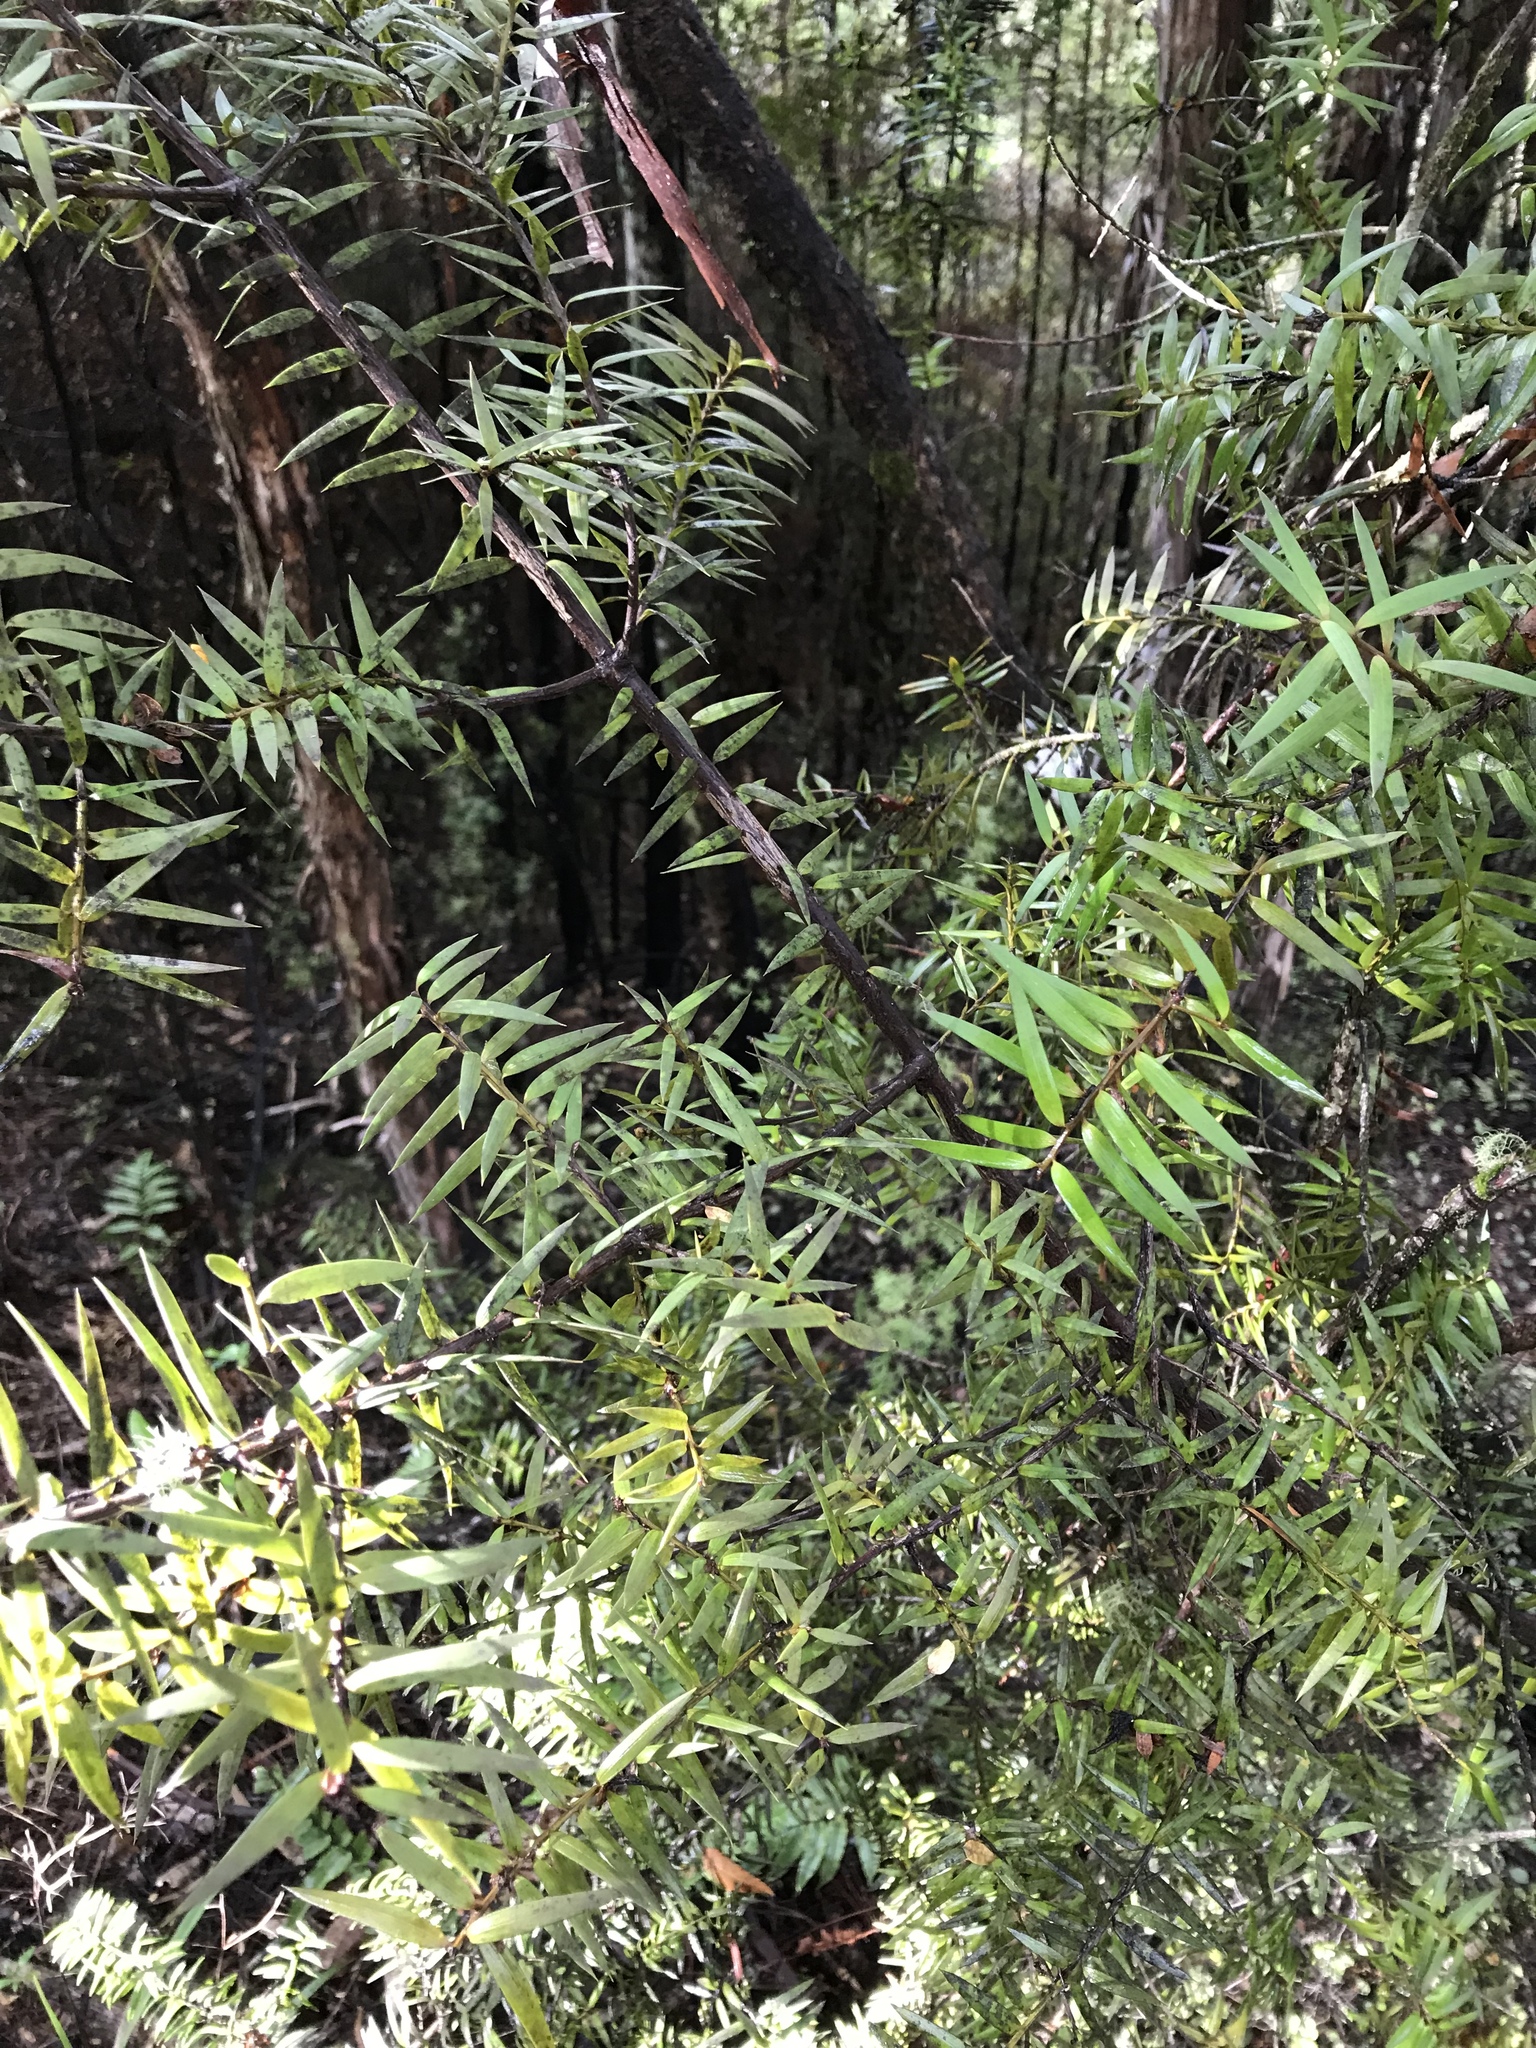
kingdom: Plantae
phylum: Tracheophyta
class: Pinopsida
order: Pinales
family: Podocarpaceae
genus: Podocarpus
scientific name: Podocarpus totara
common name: Totara
